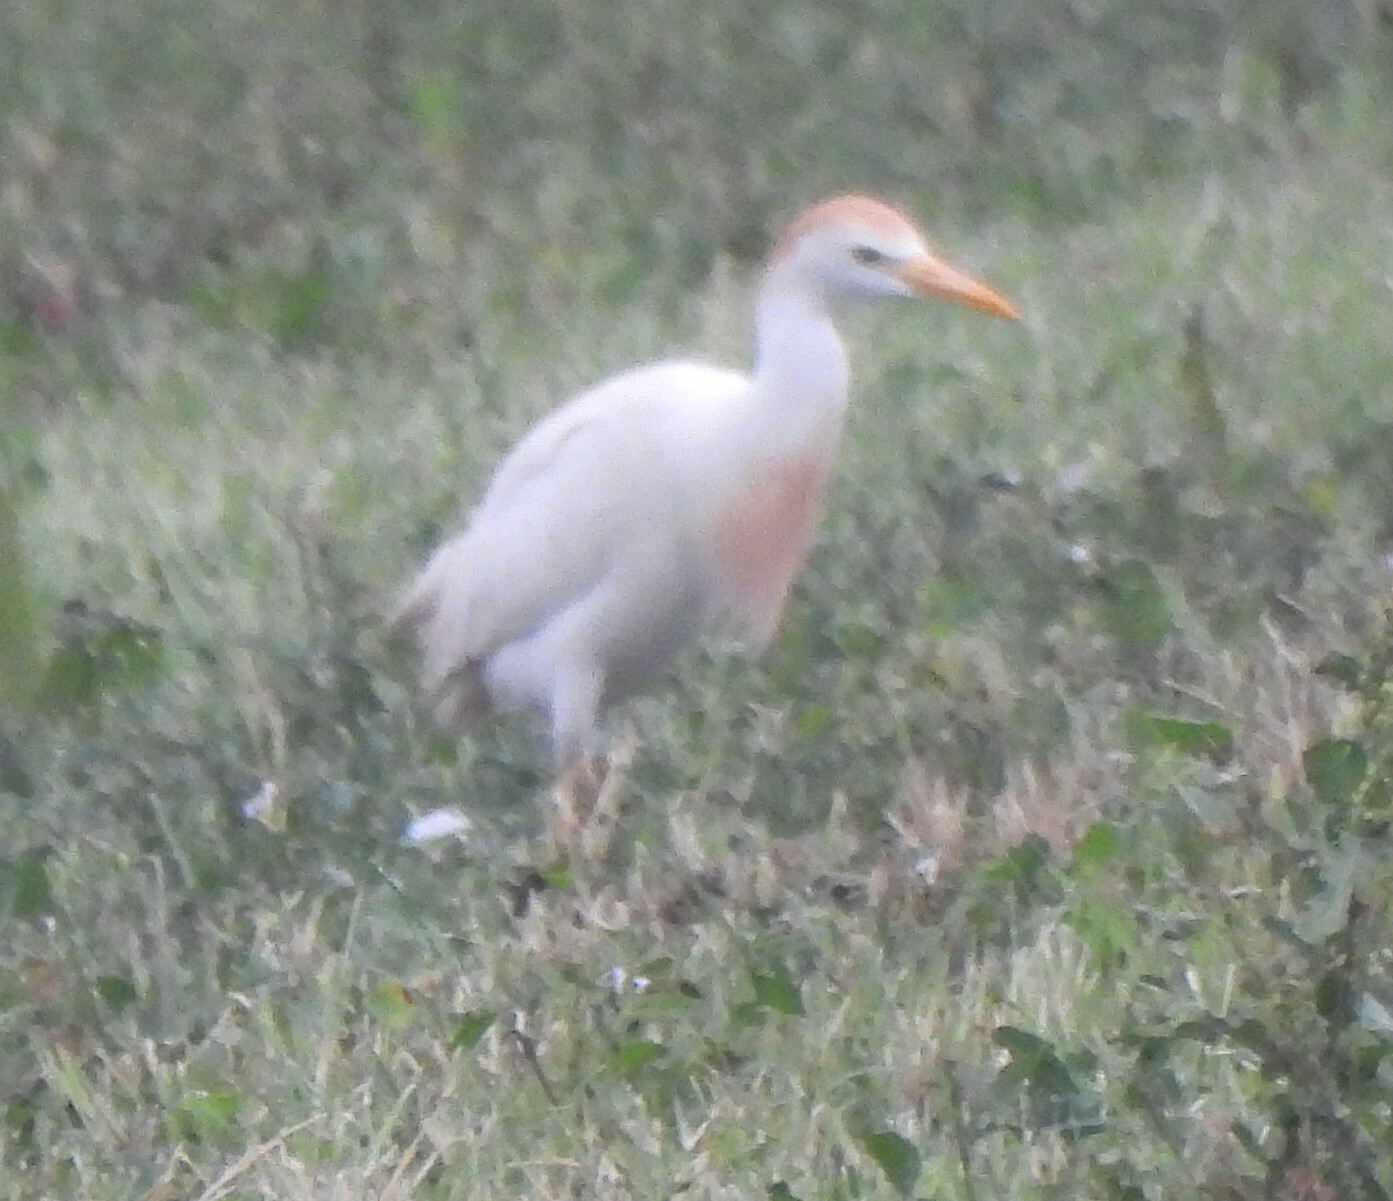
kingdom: Animalia
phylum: Chordata
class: Aves
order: Pelecaniformes
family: Ardeidae
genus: Bubulcus
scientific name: Bubulcus ibis
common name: Cattle egret
